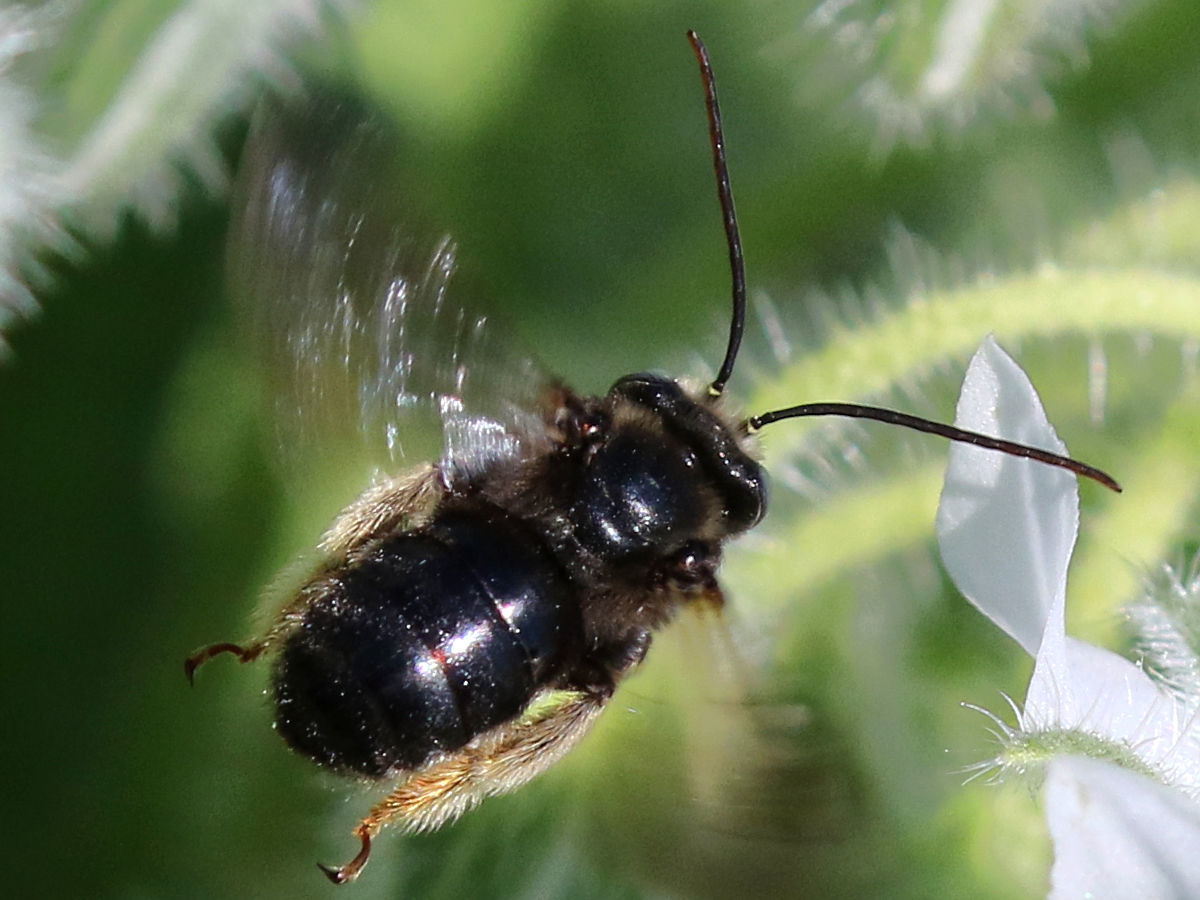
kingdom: Animalia
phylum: Arthropoda
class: Insecta
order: Hymenoptera
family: Apidae
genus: Melissodes
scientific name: Melissodes bimaculatus
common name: Two-spotted long-horned bee
